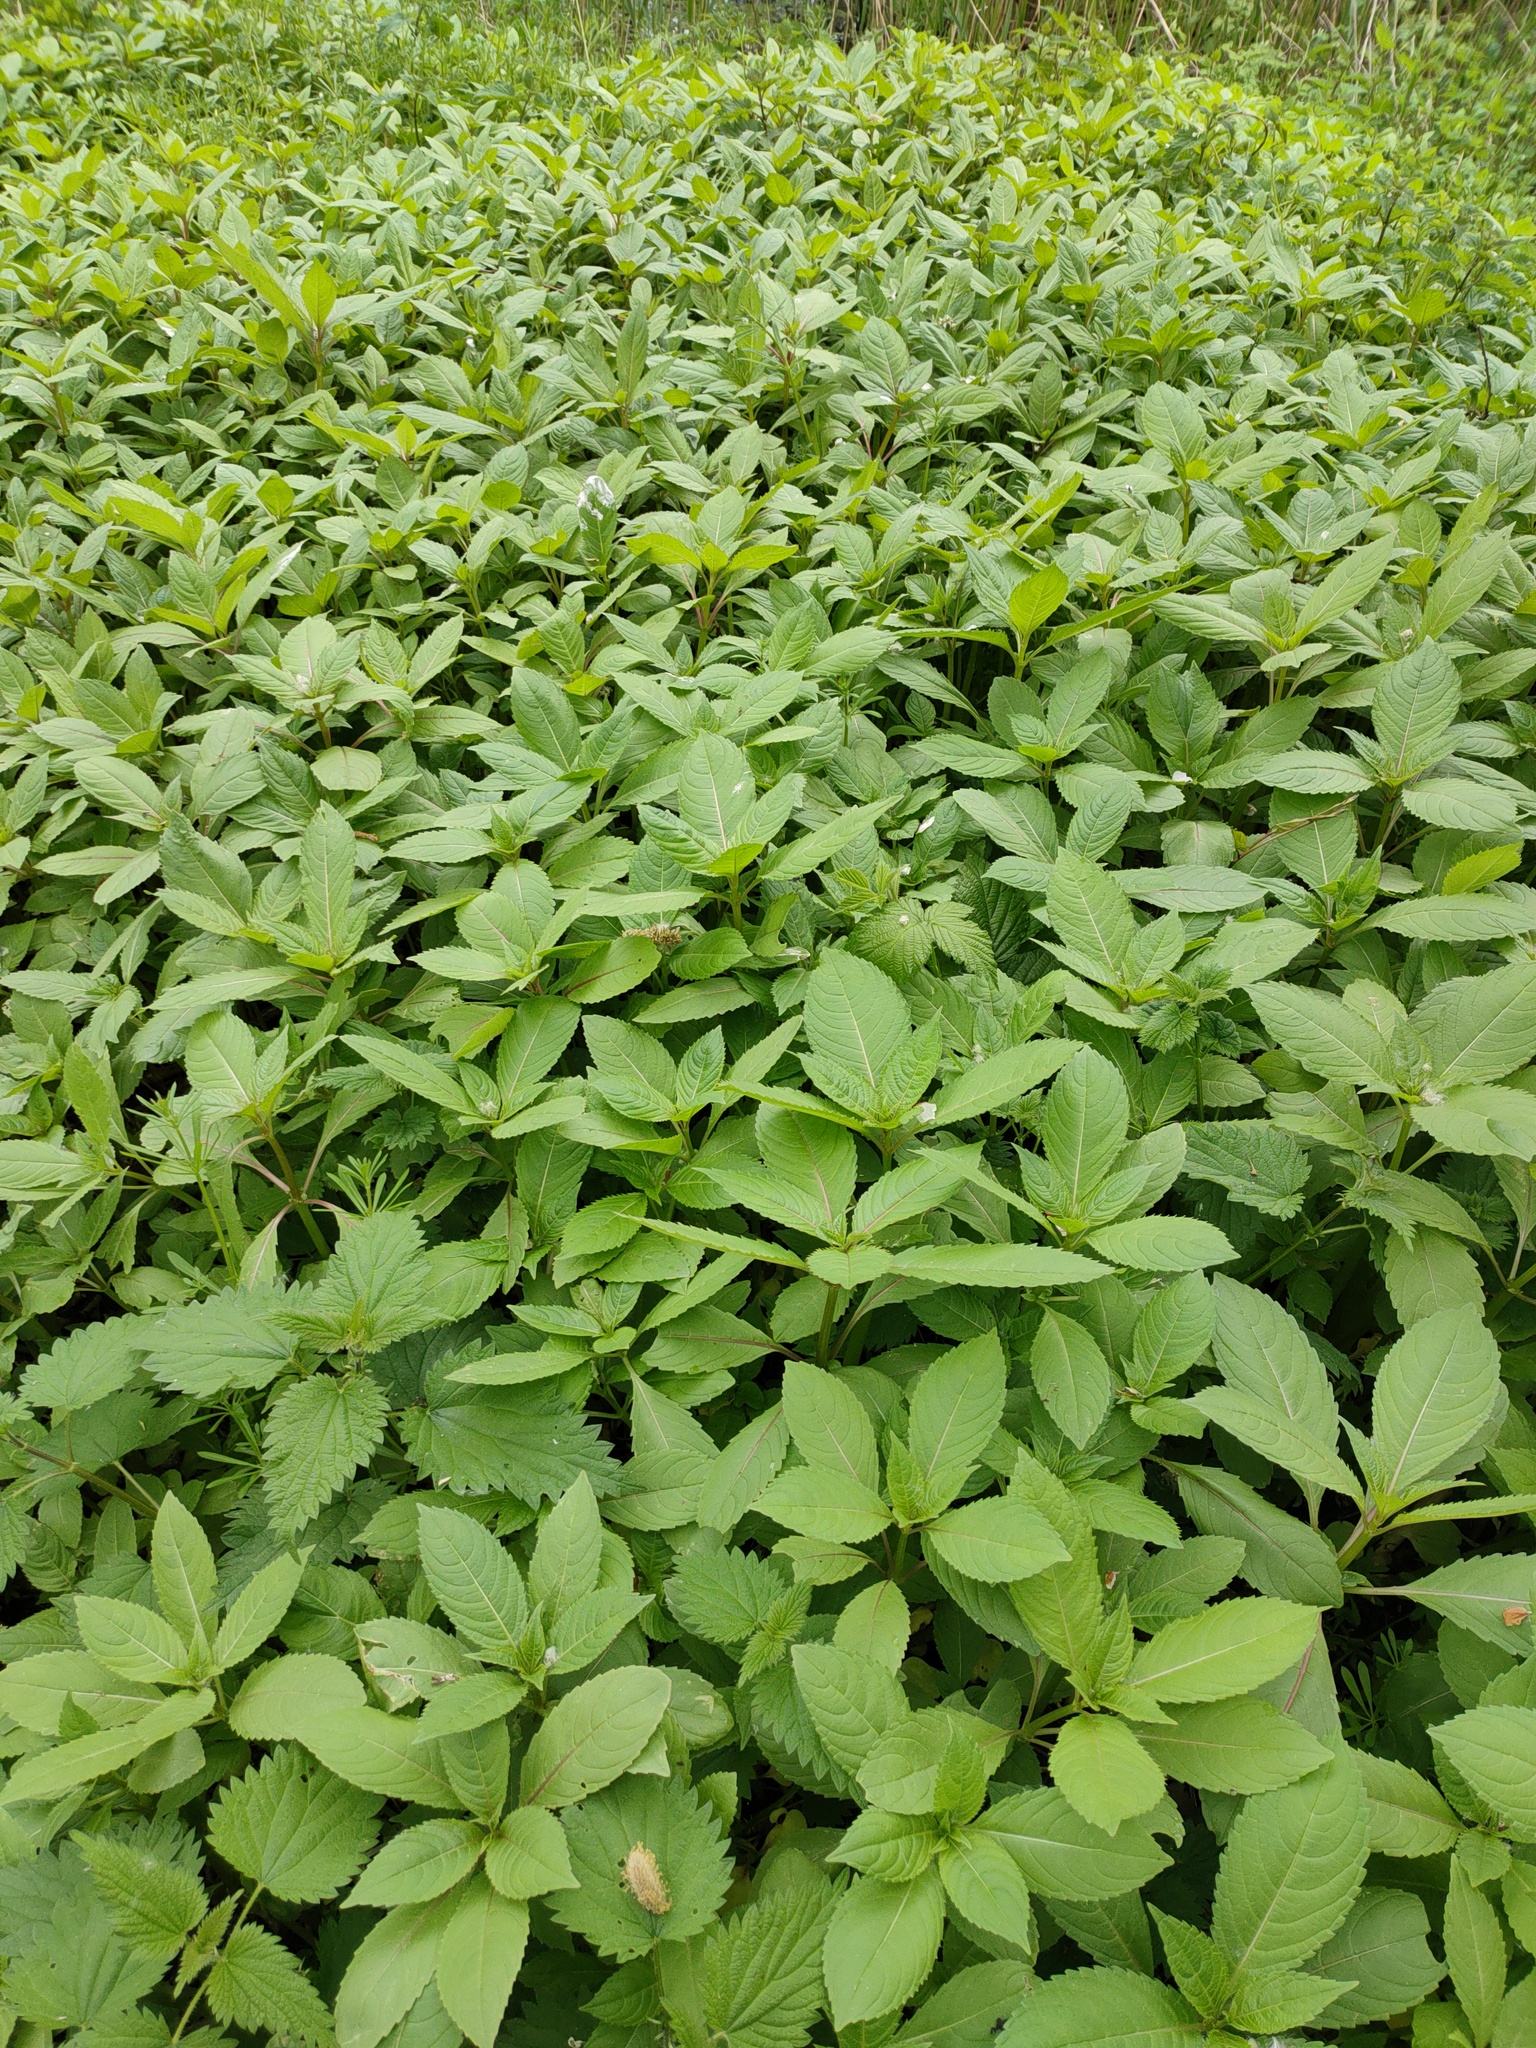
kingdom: Plantae
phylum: Tracheophyta
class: Magnoliopsida
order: Ericales
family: Balsaminaceae
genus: Impatiens
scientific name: Impatiens glandulifera
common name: Himalayan balsam
